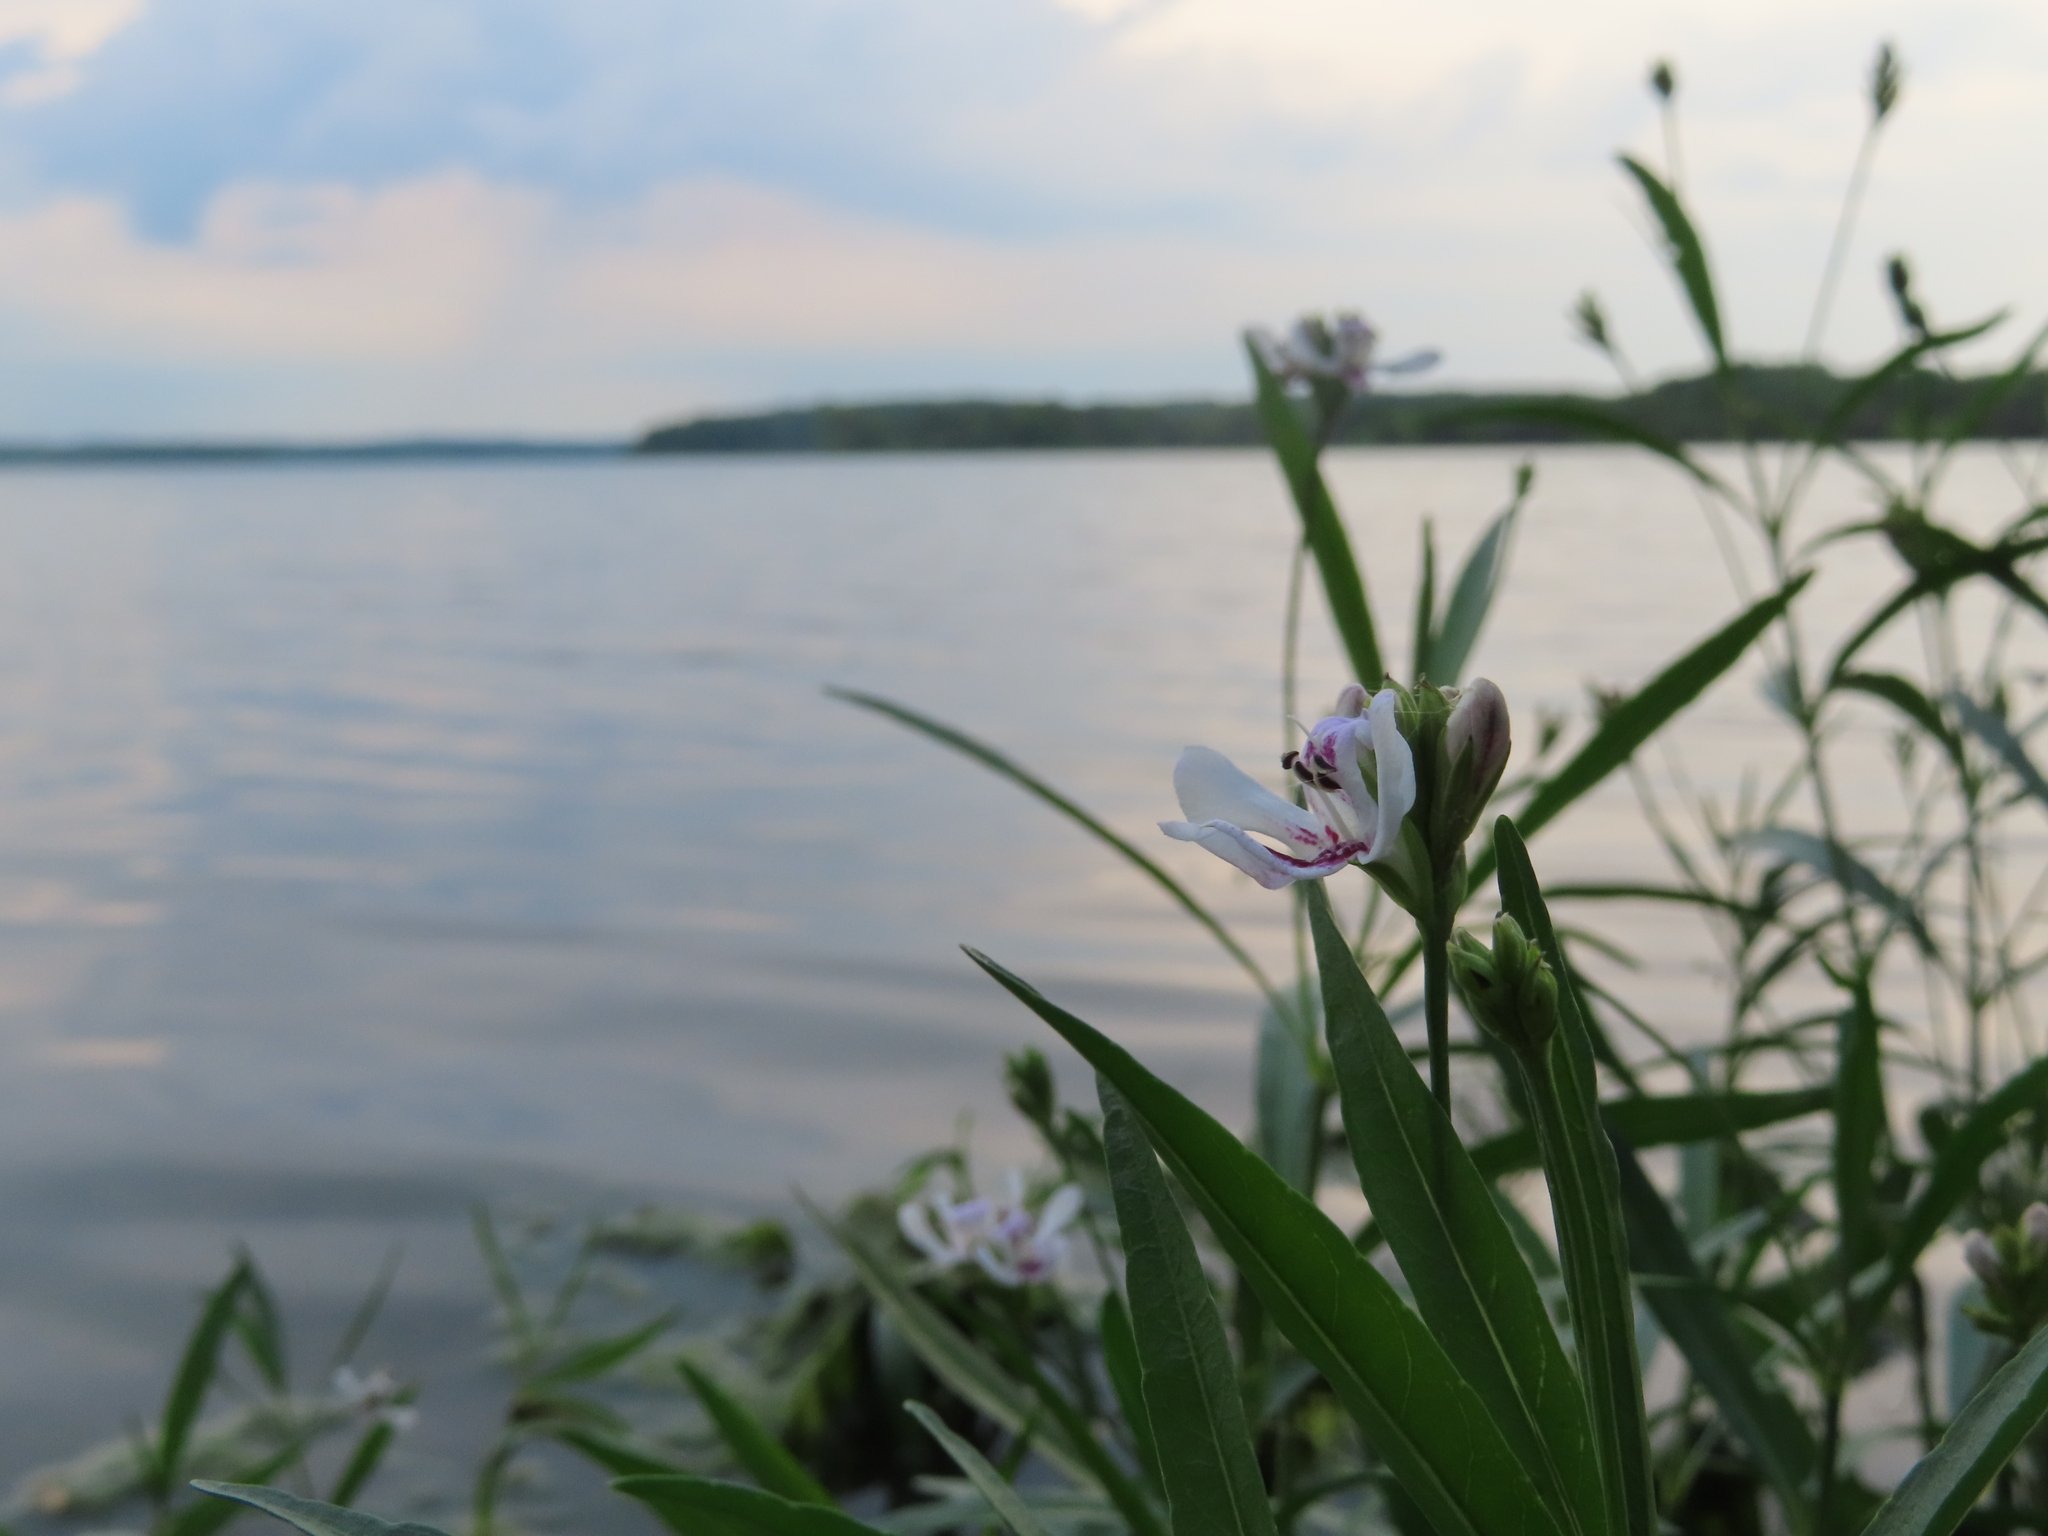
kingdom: Plantae
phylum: Tracheophyta
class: Magnoliopsida
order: Lamiales
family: Acanthaceae
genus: Dianthera
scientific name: Dianthera americana
